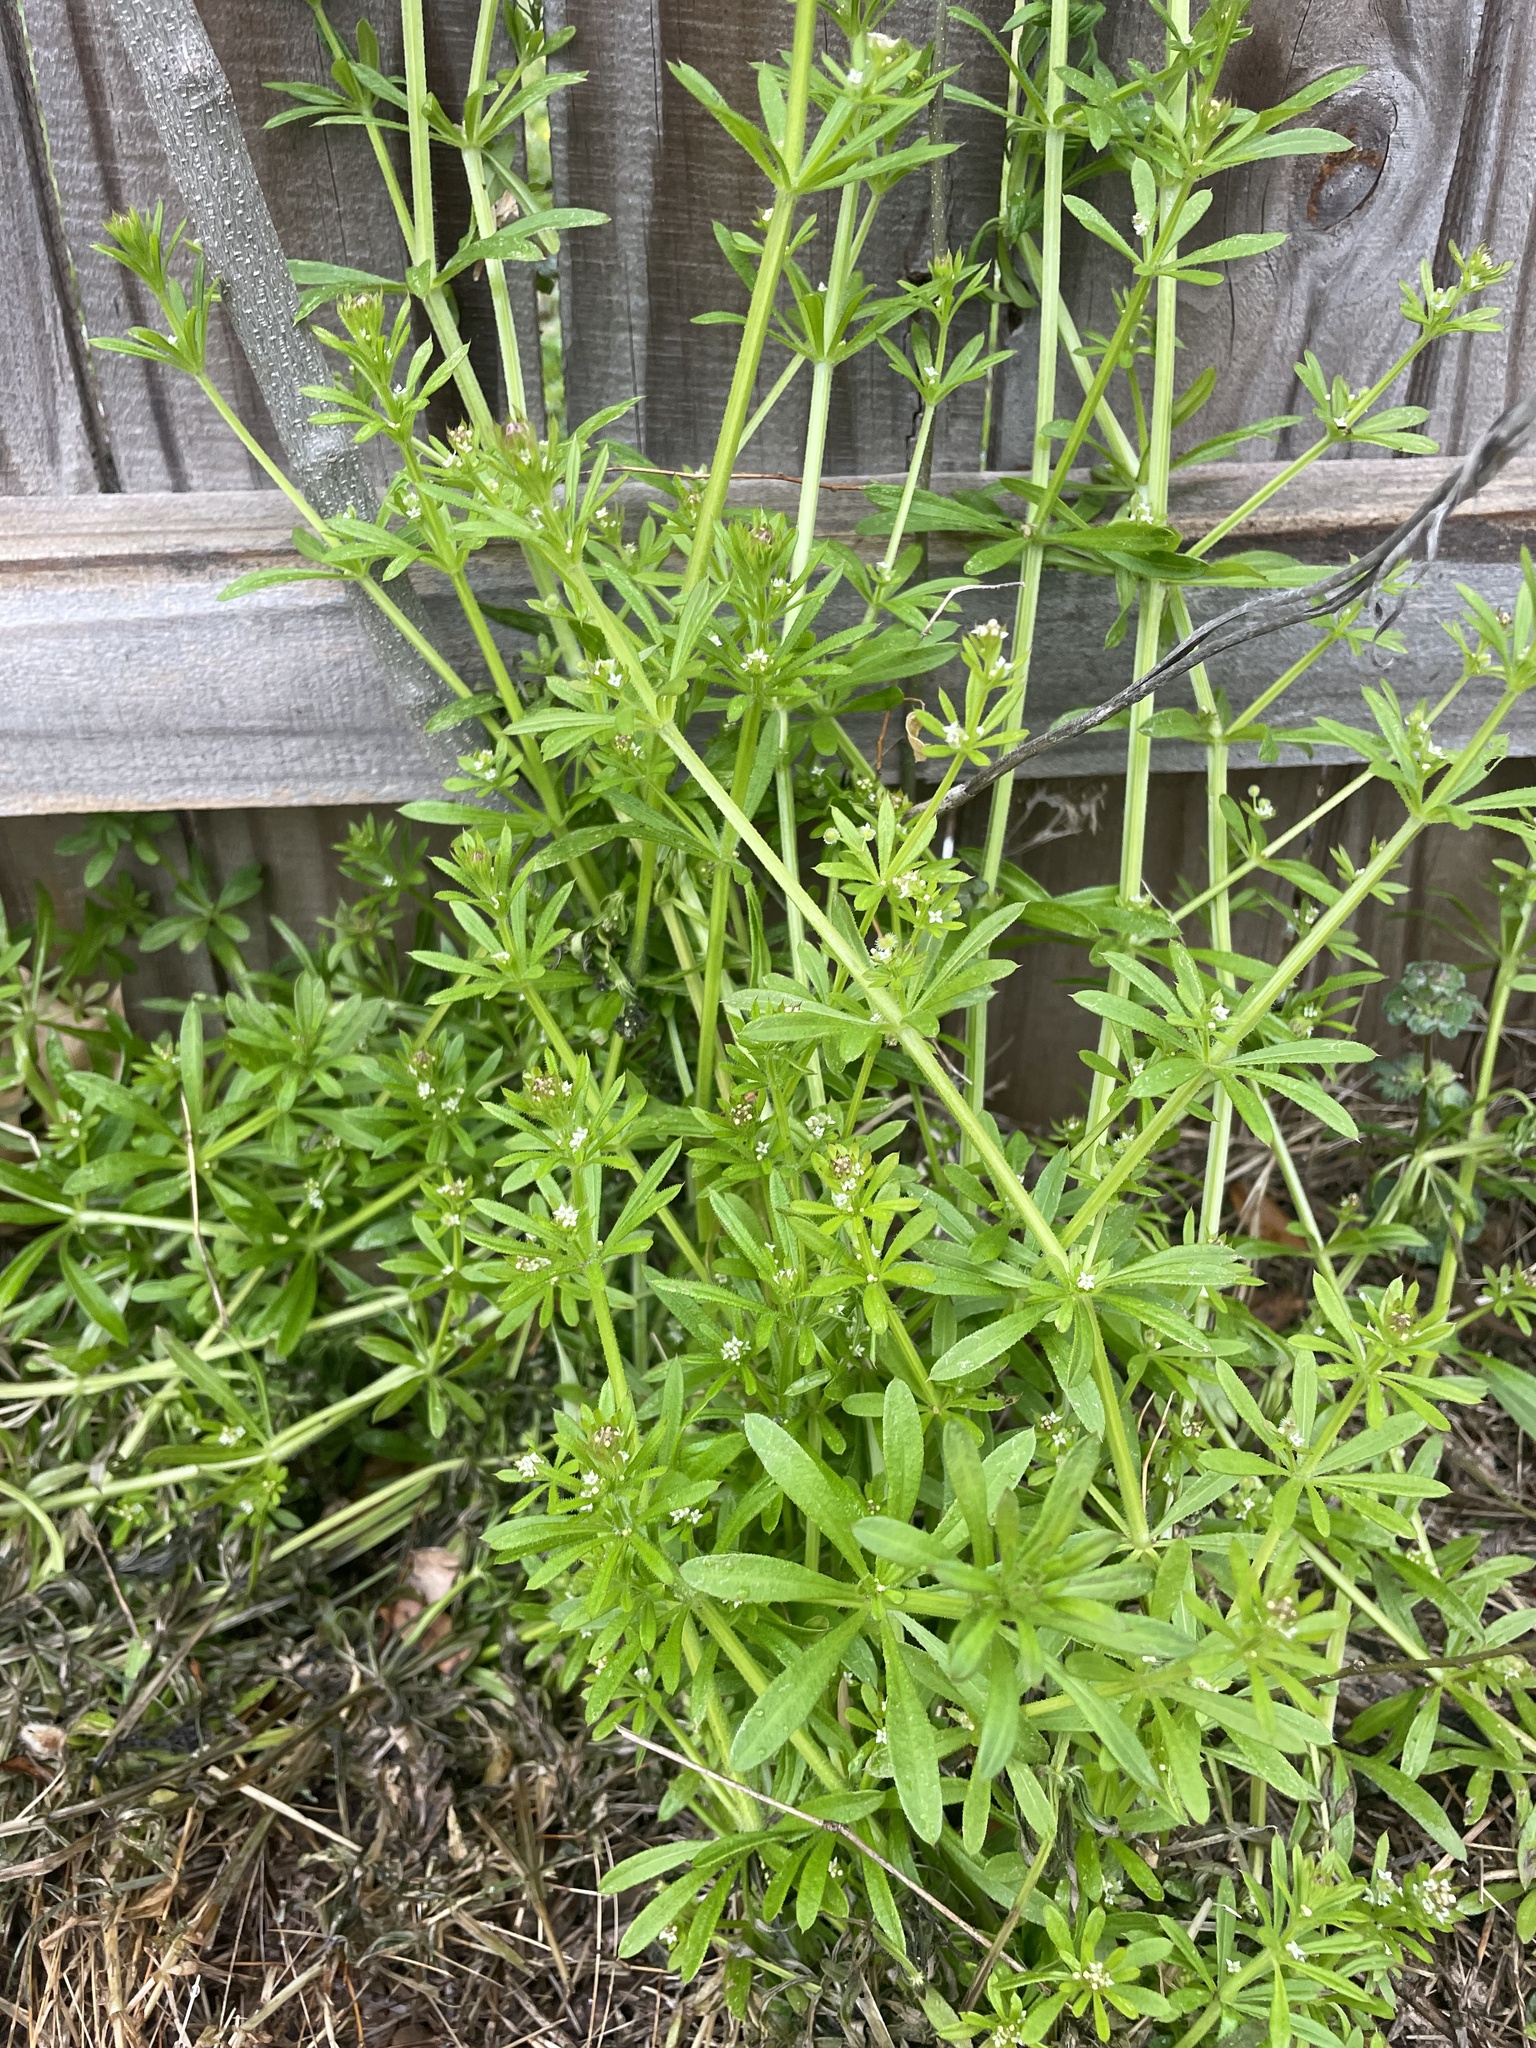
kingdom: Plantae
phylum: Tracheophyta
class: Magnoliopsida
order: Gentianales
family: Rubiaceae
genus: Galium
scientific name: Galium aparine
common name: Cleavers
